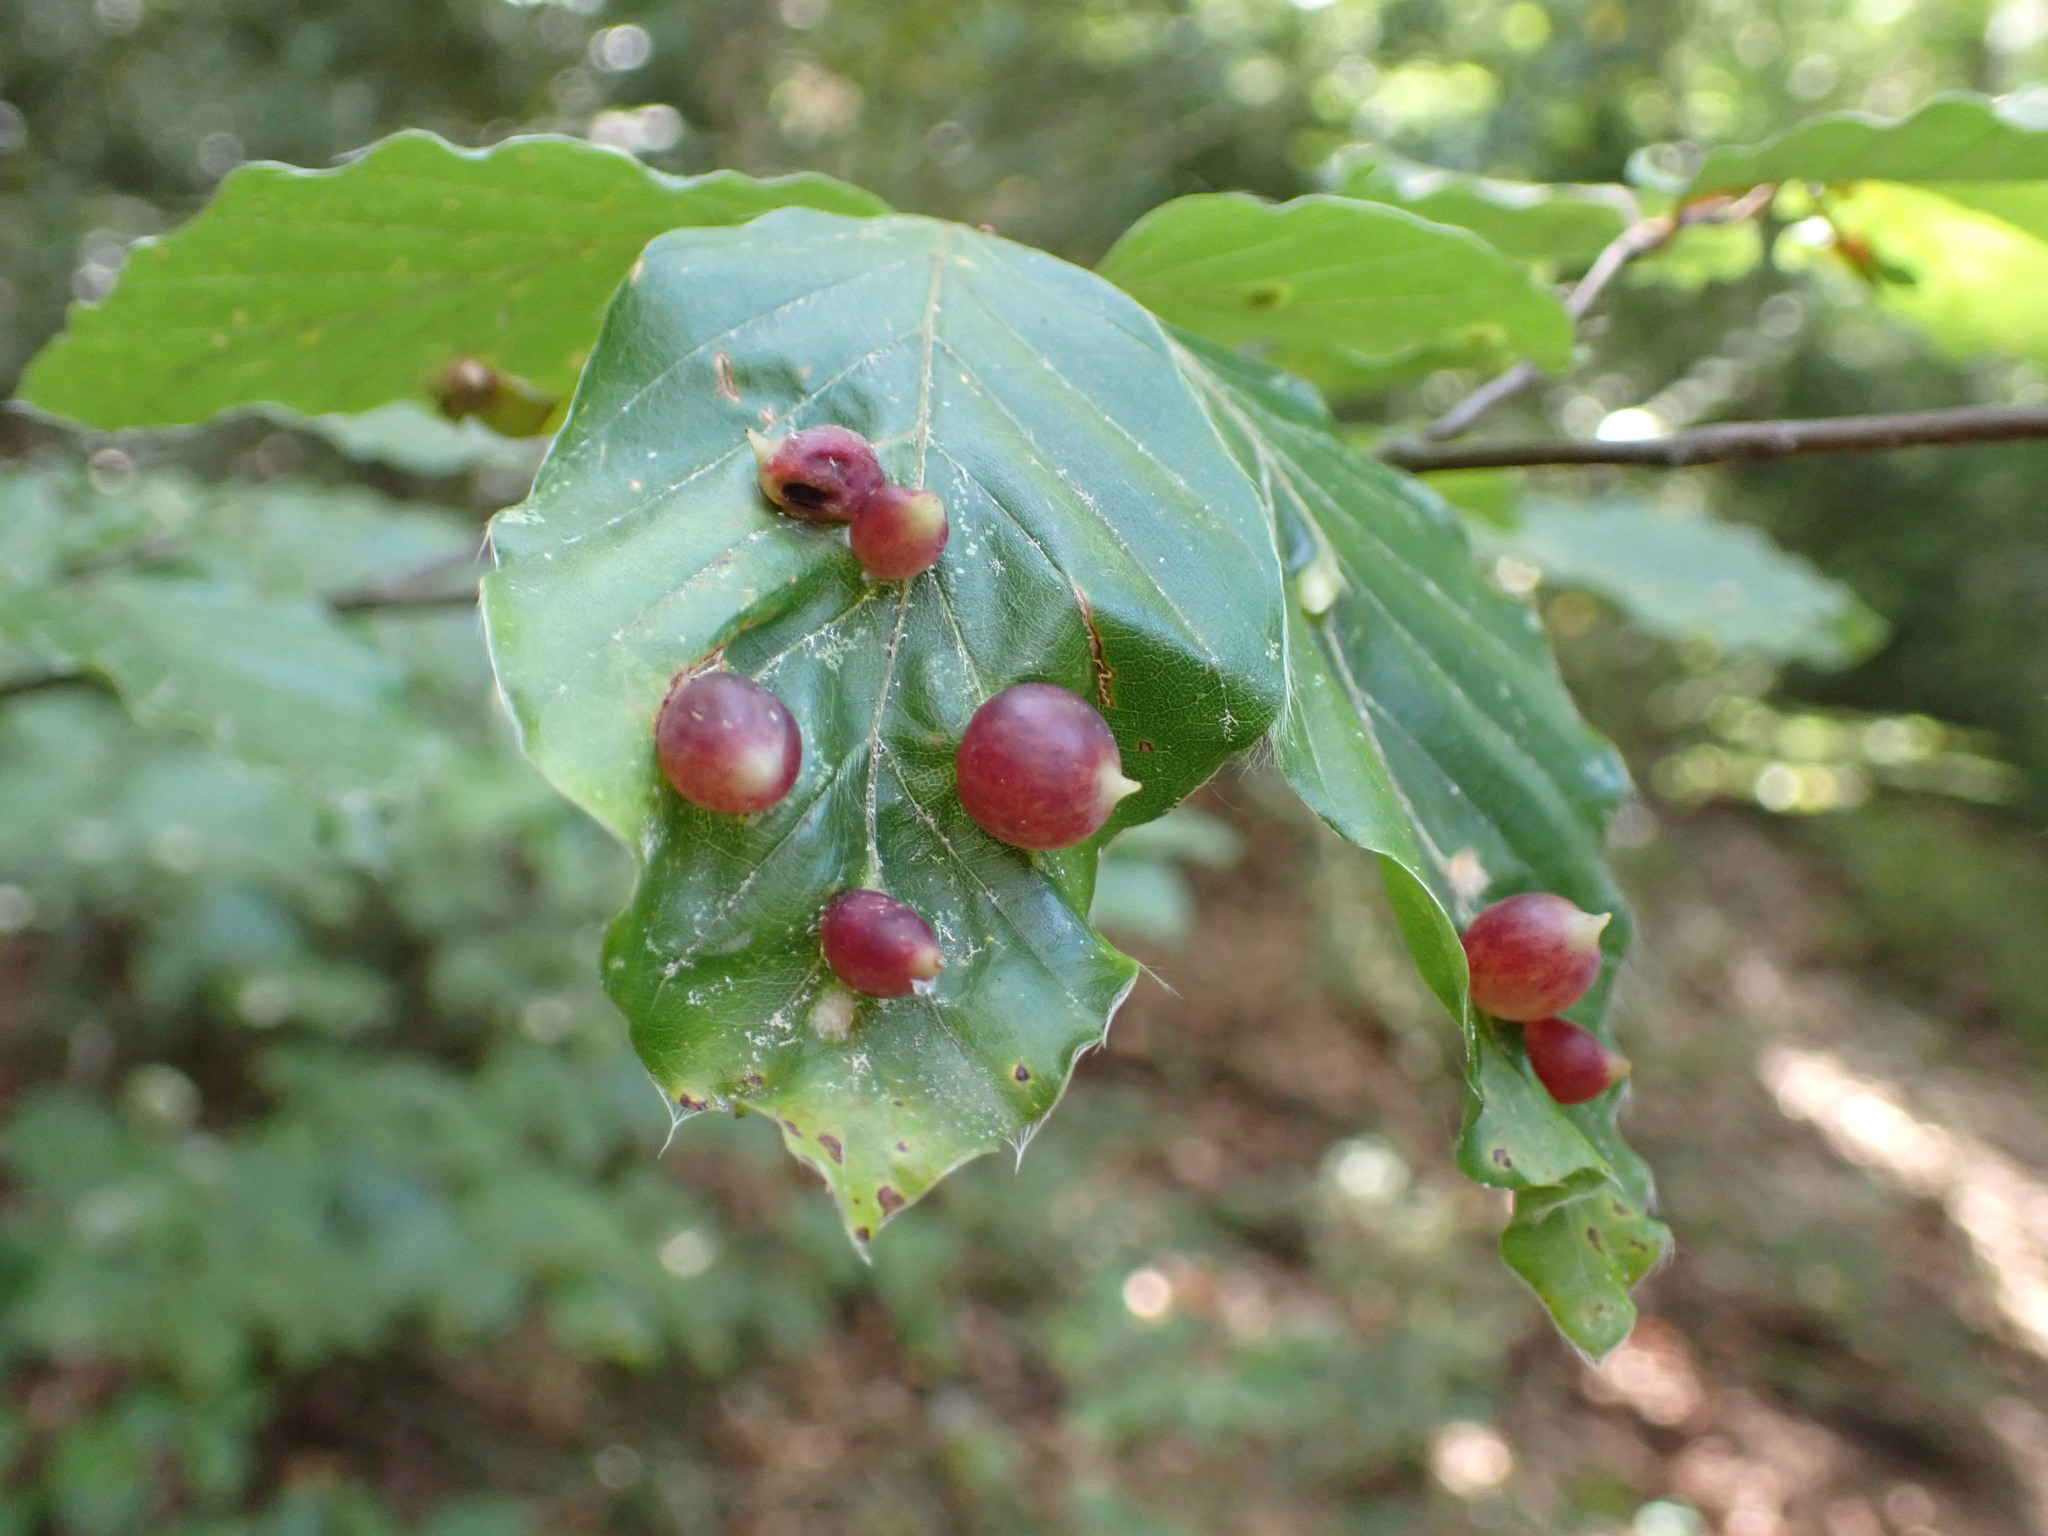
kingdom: Animalia
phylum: Arthropoda
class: Insecta
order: Diptera
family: Cecidomyiidae
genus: Mikiola
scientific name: Mikiola fagi
